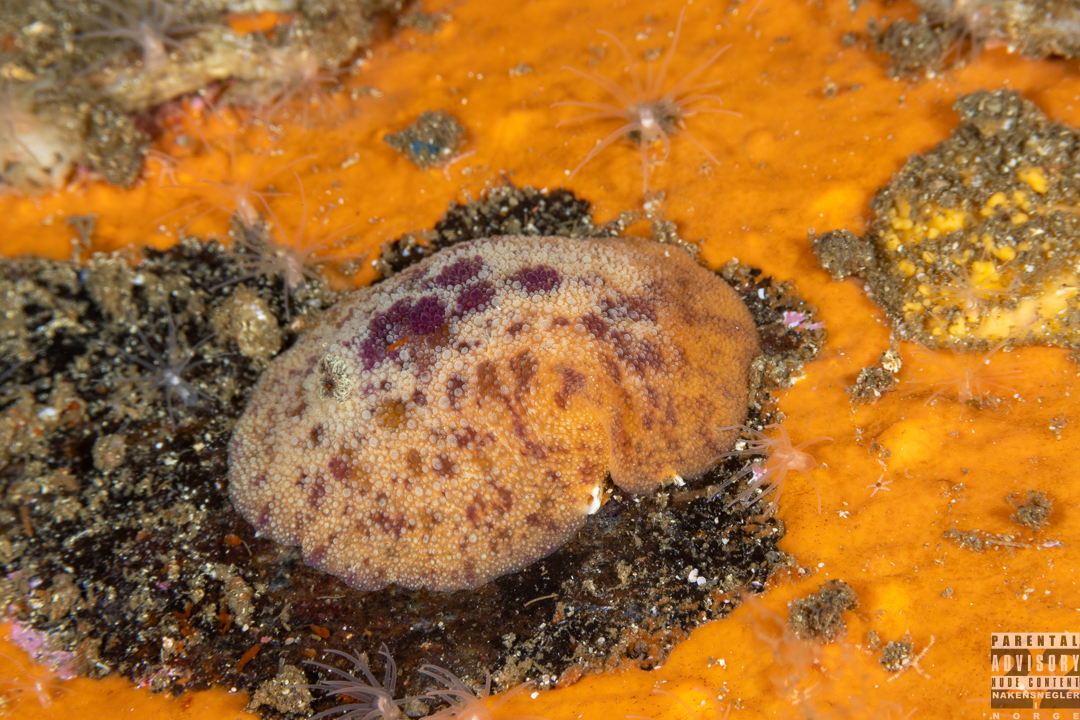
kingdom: Animalia
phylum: Mollusca
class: Gastropoda
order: Nudibranchia
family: Dorididae
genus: Doris
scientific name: Doris pseudoargus
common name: Sea lemon
